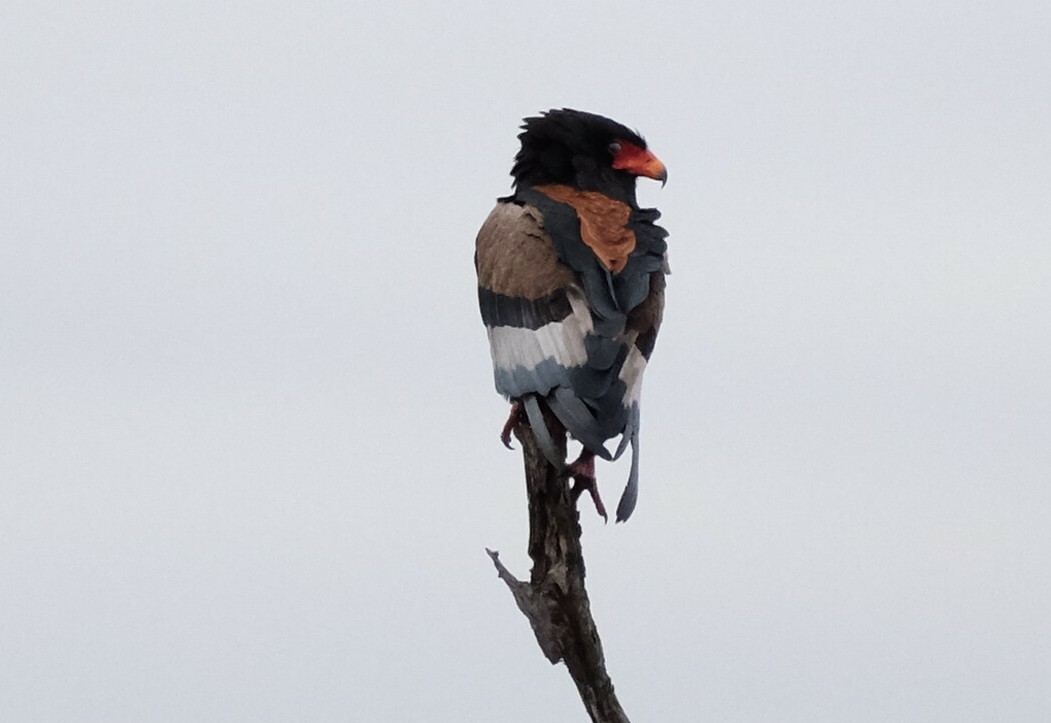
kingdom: Animalia
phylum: Chordata
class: Aves
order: Accipitriformes
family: Accipitridae
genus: Terathopius
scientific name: Terathopius ecaudatus
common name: Bateleur
